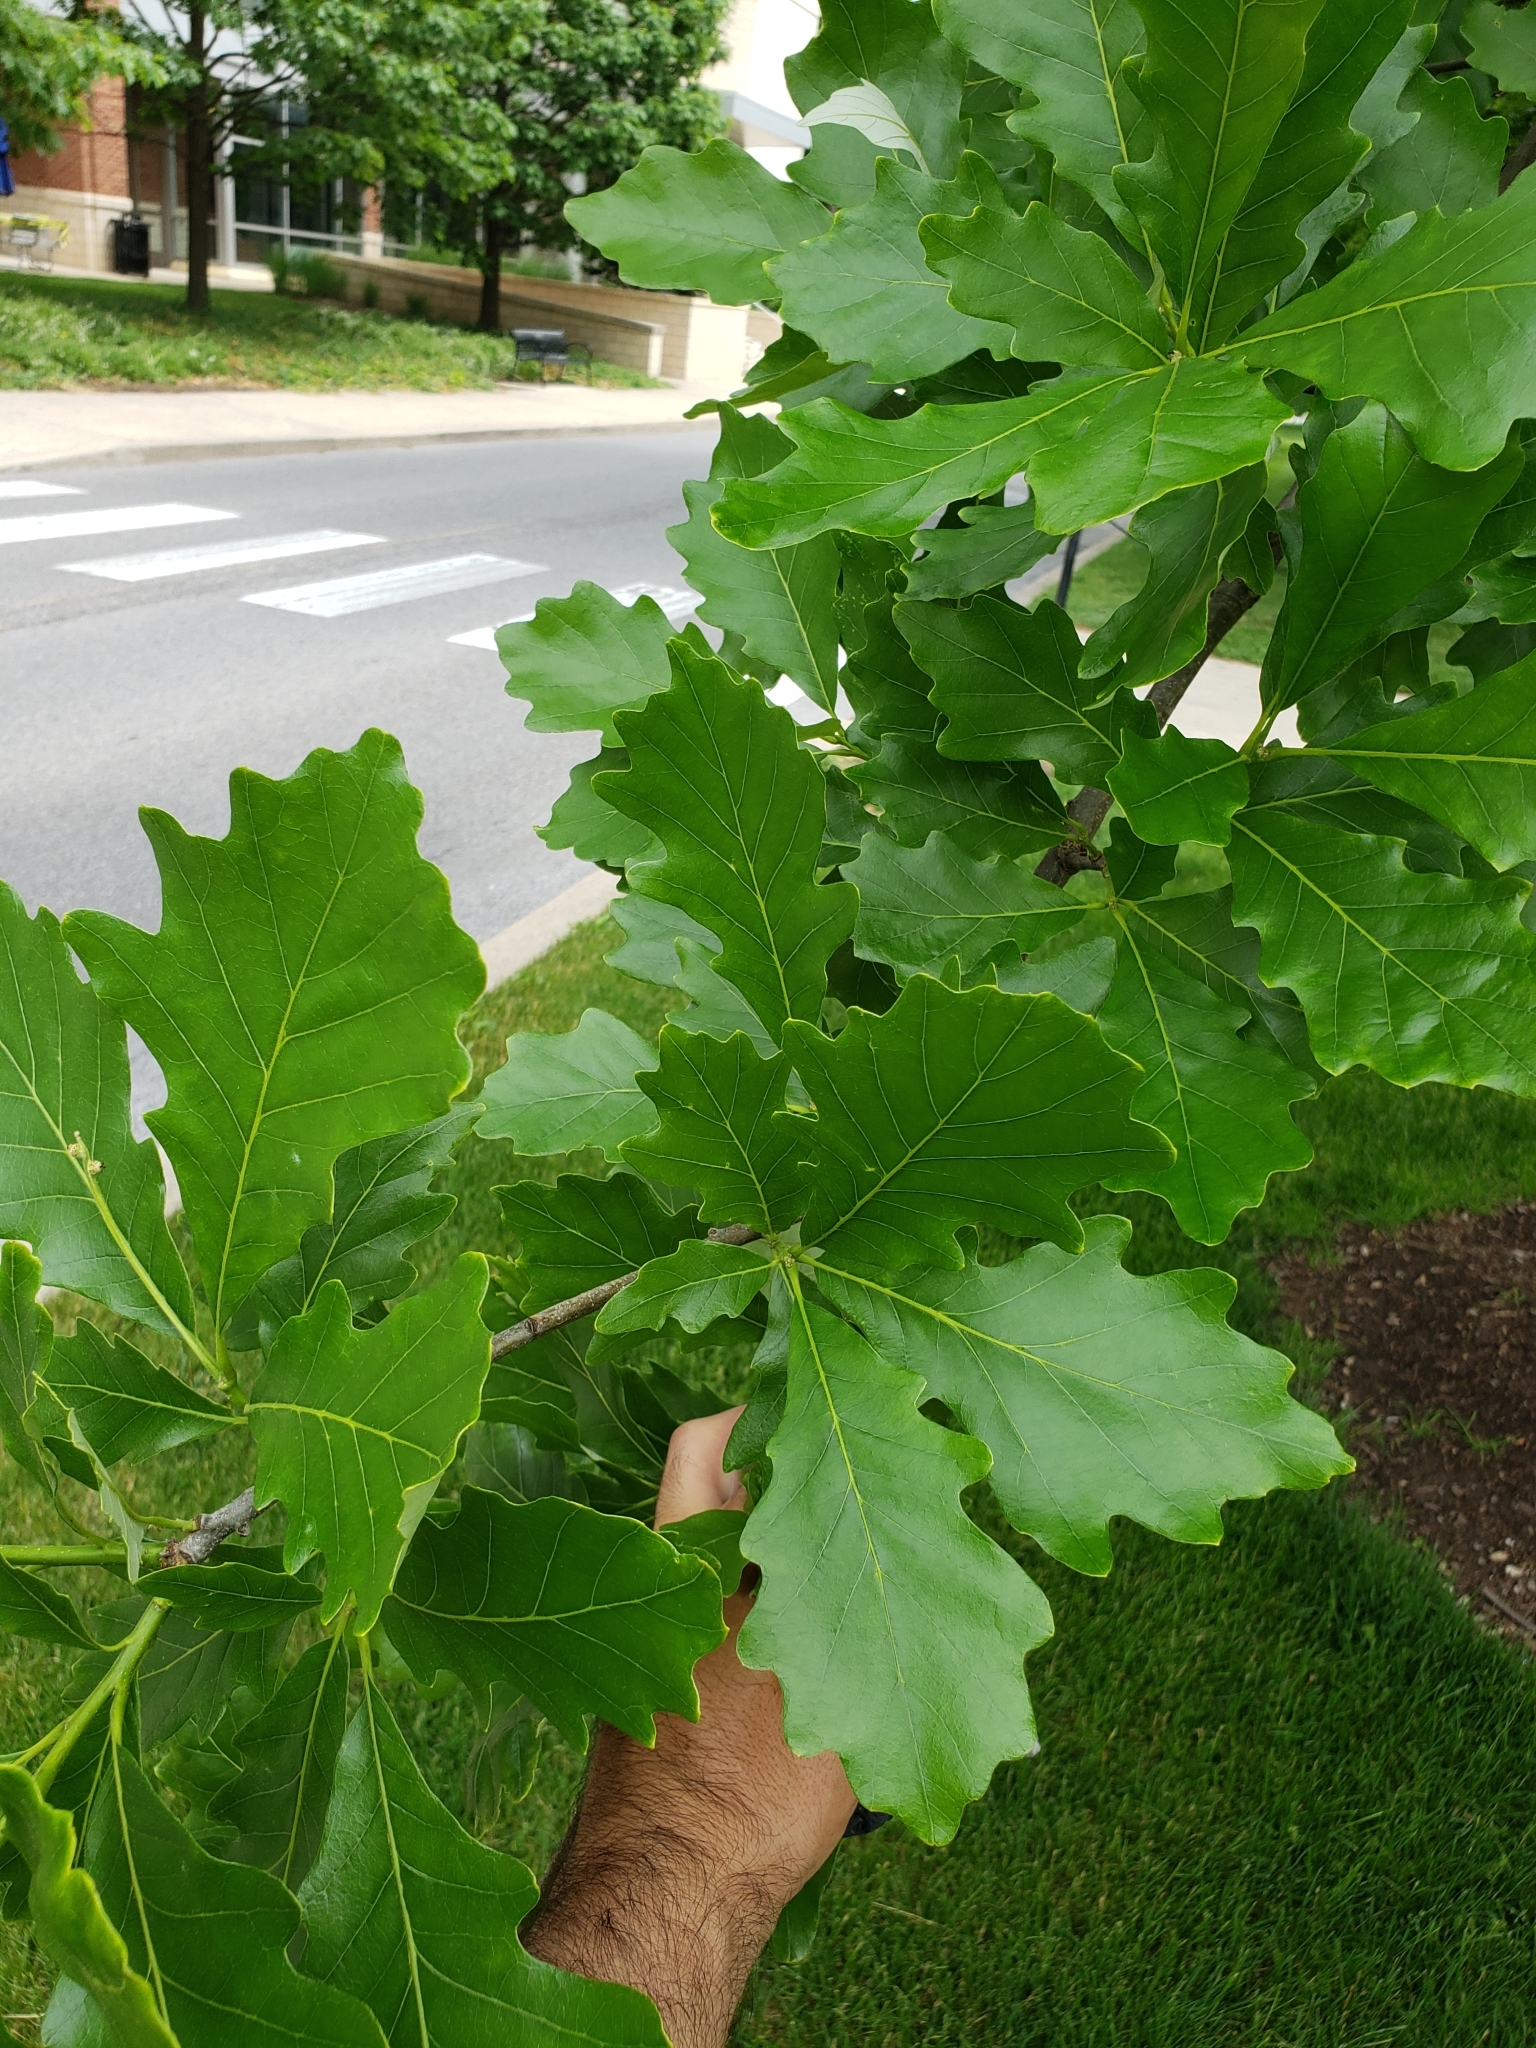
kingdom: Animalia
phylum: Arthropoda
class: Insecta
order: Hymenoptera
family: Cynipidae
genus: Neuroterus
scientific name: Neuroterus quercusbaccarum
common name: Common spangle gall
